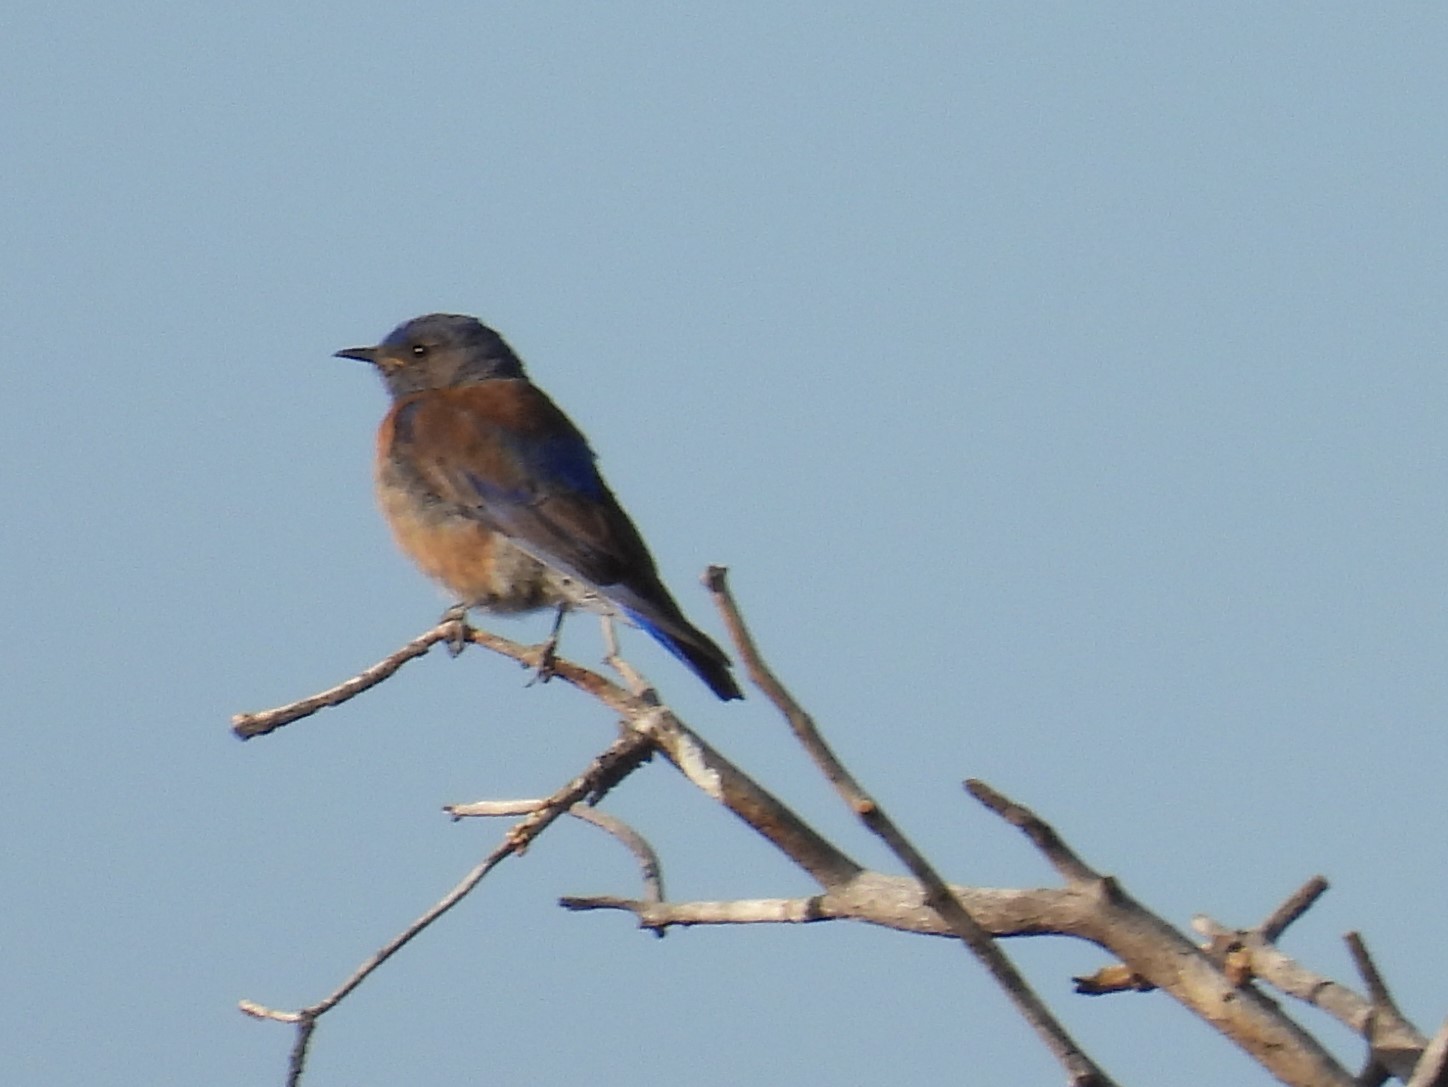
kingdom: Animalia
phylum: Chordata
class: Aves
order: Passeriformes
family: Turdidae
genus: Sialia
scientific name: Sialia mexicana
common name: Western bluebird
